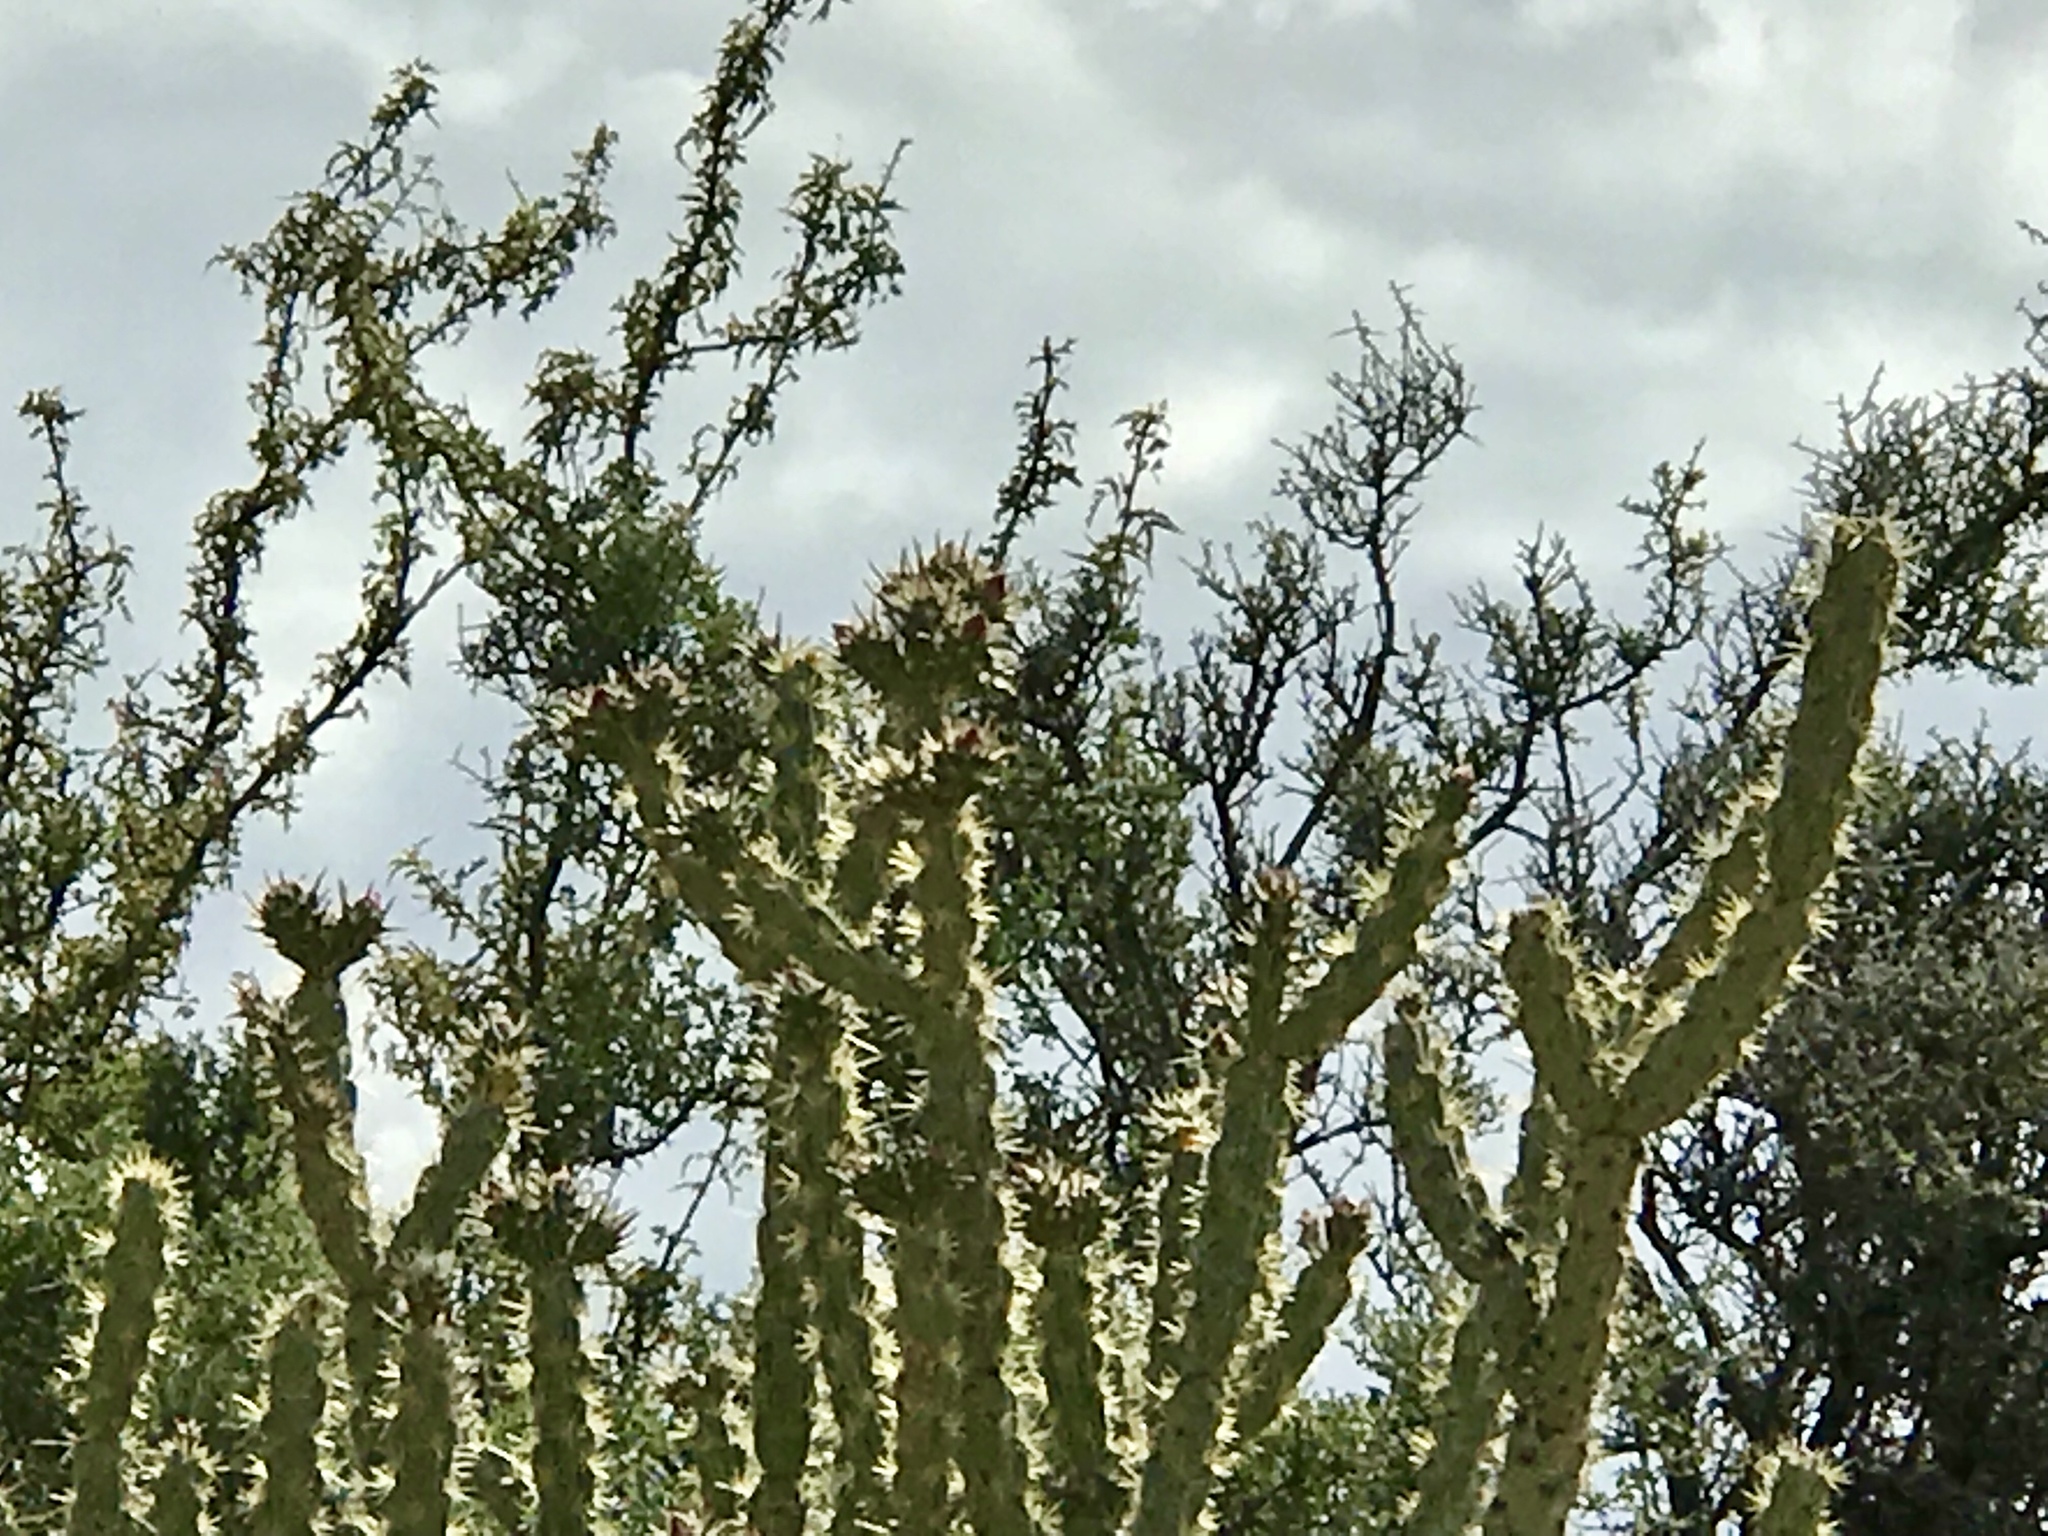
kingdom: Plantae
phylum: Tracheophyta
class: Magnoliopsida
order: Caryophyllales
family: Cactaceae
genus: Cylindropuntia
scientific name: Cylindropuntia acanthocarpa
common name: Buckhorn cholla
